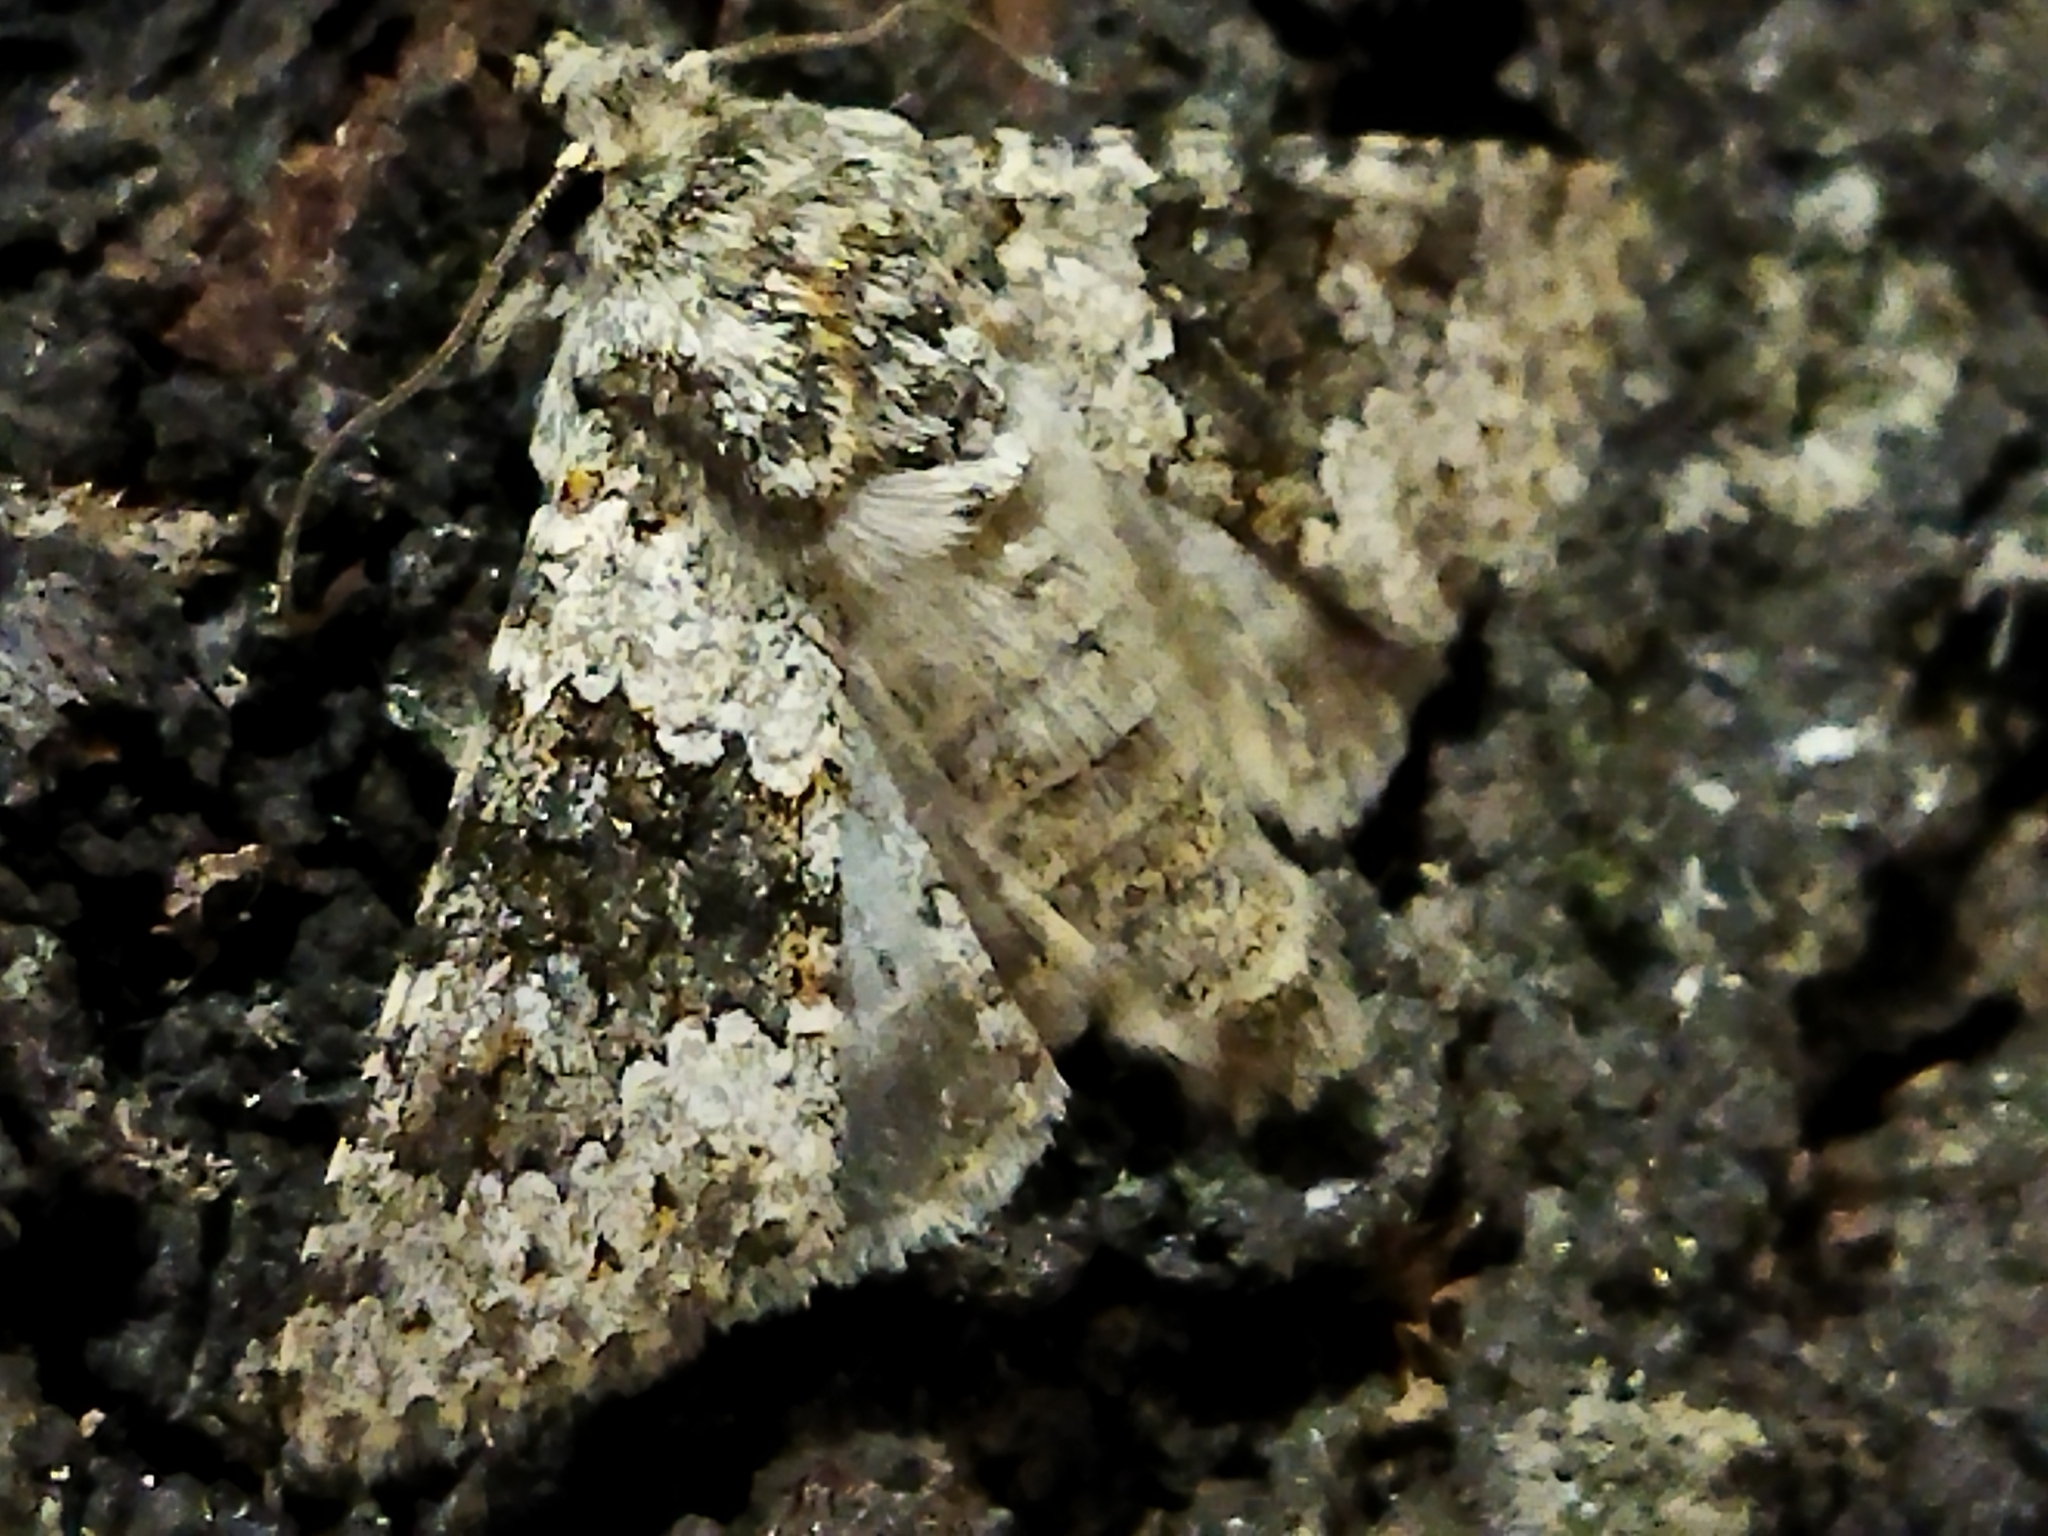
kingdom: Animalia
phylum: Arthropoda
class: Insecta
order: Lepidoptera
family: Noctuidae
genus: Hecatera
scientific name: Hecatera dysodea
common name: Small ranunculus
